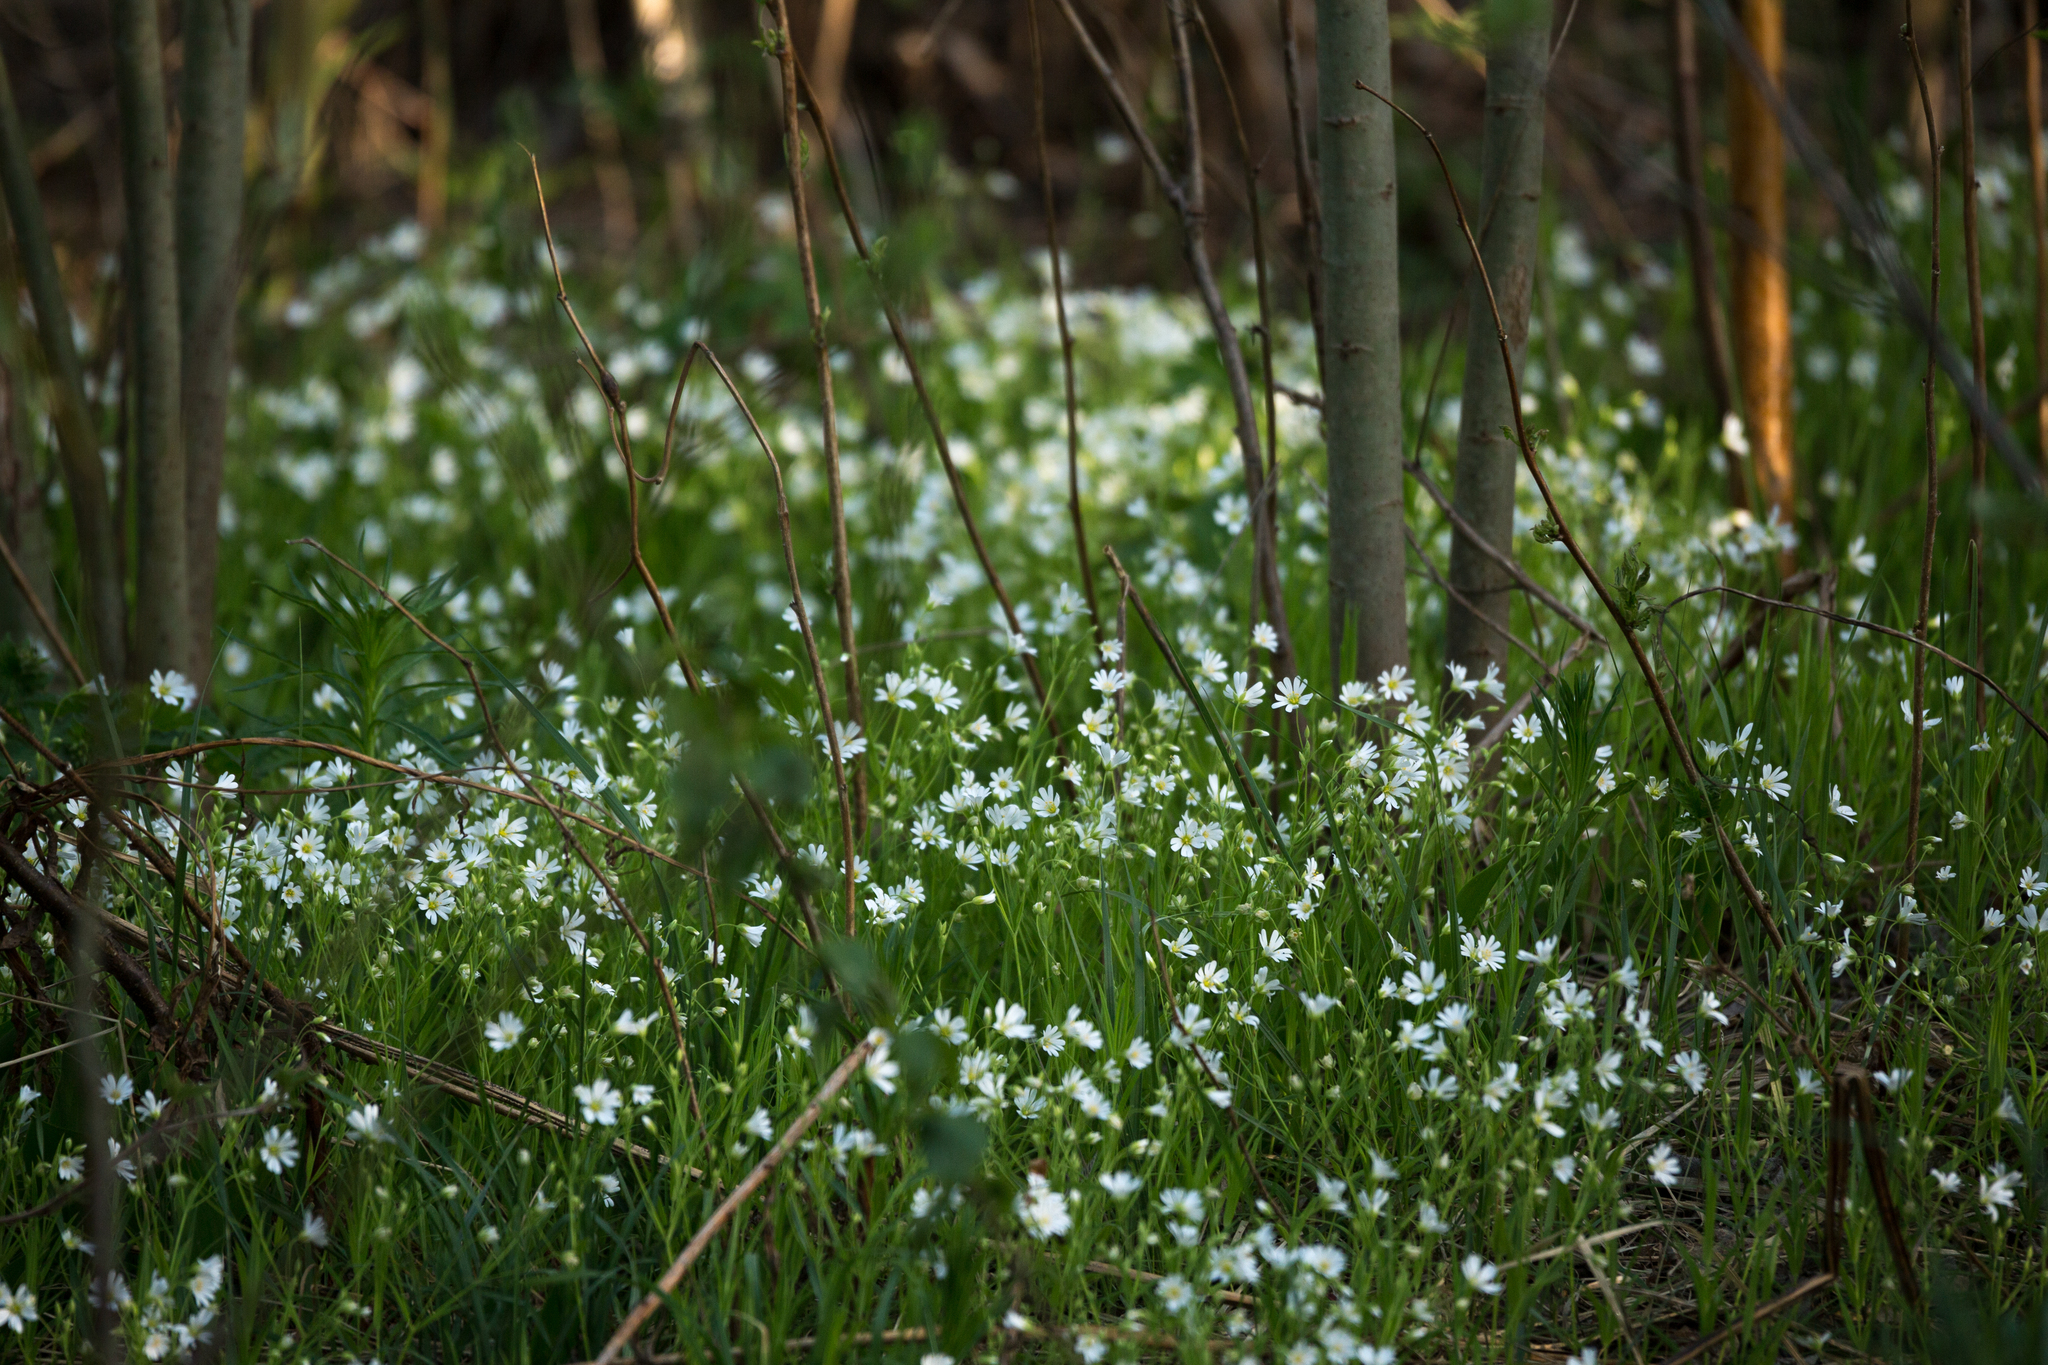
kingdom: Plantae
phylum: Tracheophyta
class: Magnoliopsida
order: Caryophyllales
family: Caryophyllaceae
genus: Rabelera
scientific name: Rabelera holostea
